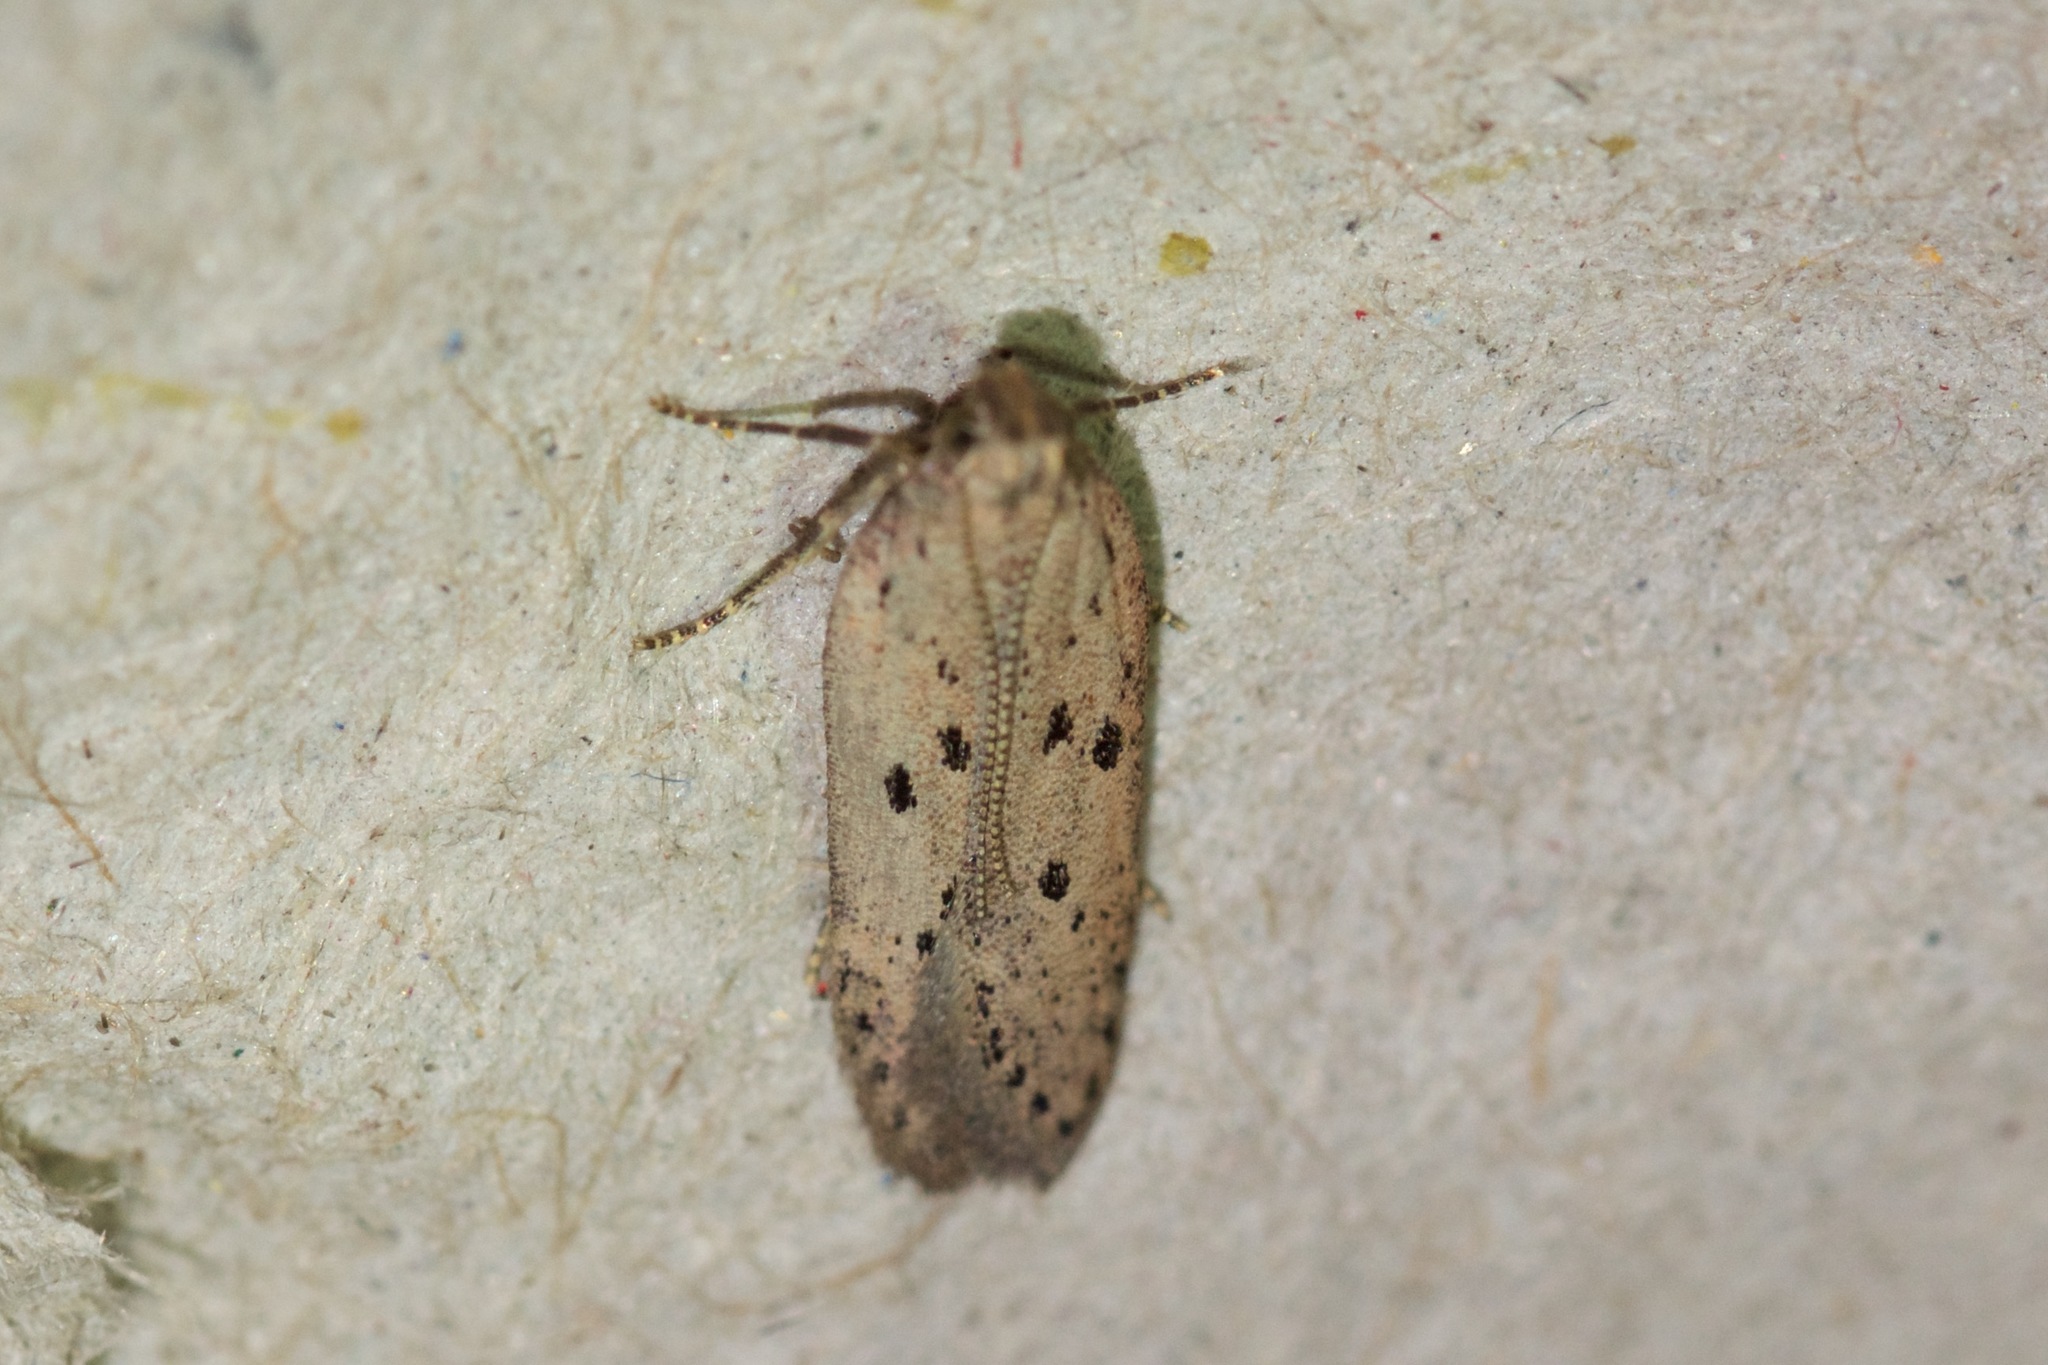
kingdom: Animalia
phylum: Arthropoda
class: Insecta
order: Lepidoptera
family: Gelechiidae
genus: Athrips
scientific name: Athrips mouffetella
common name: Dotted grey groundling
